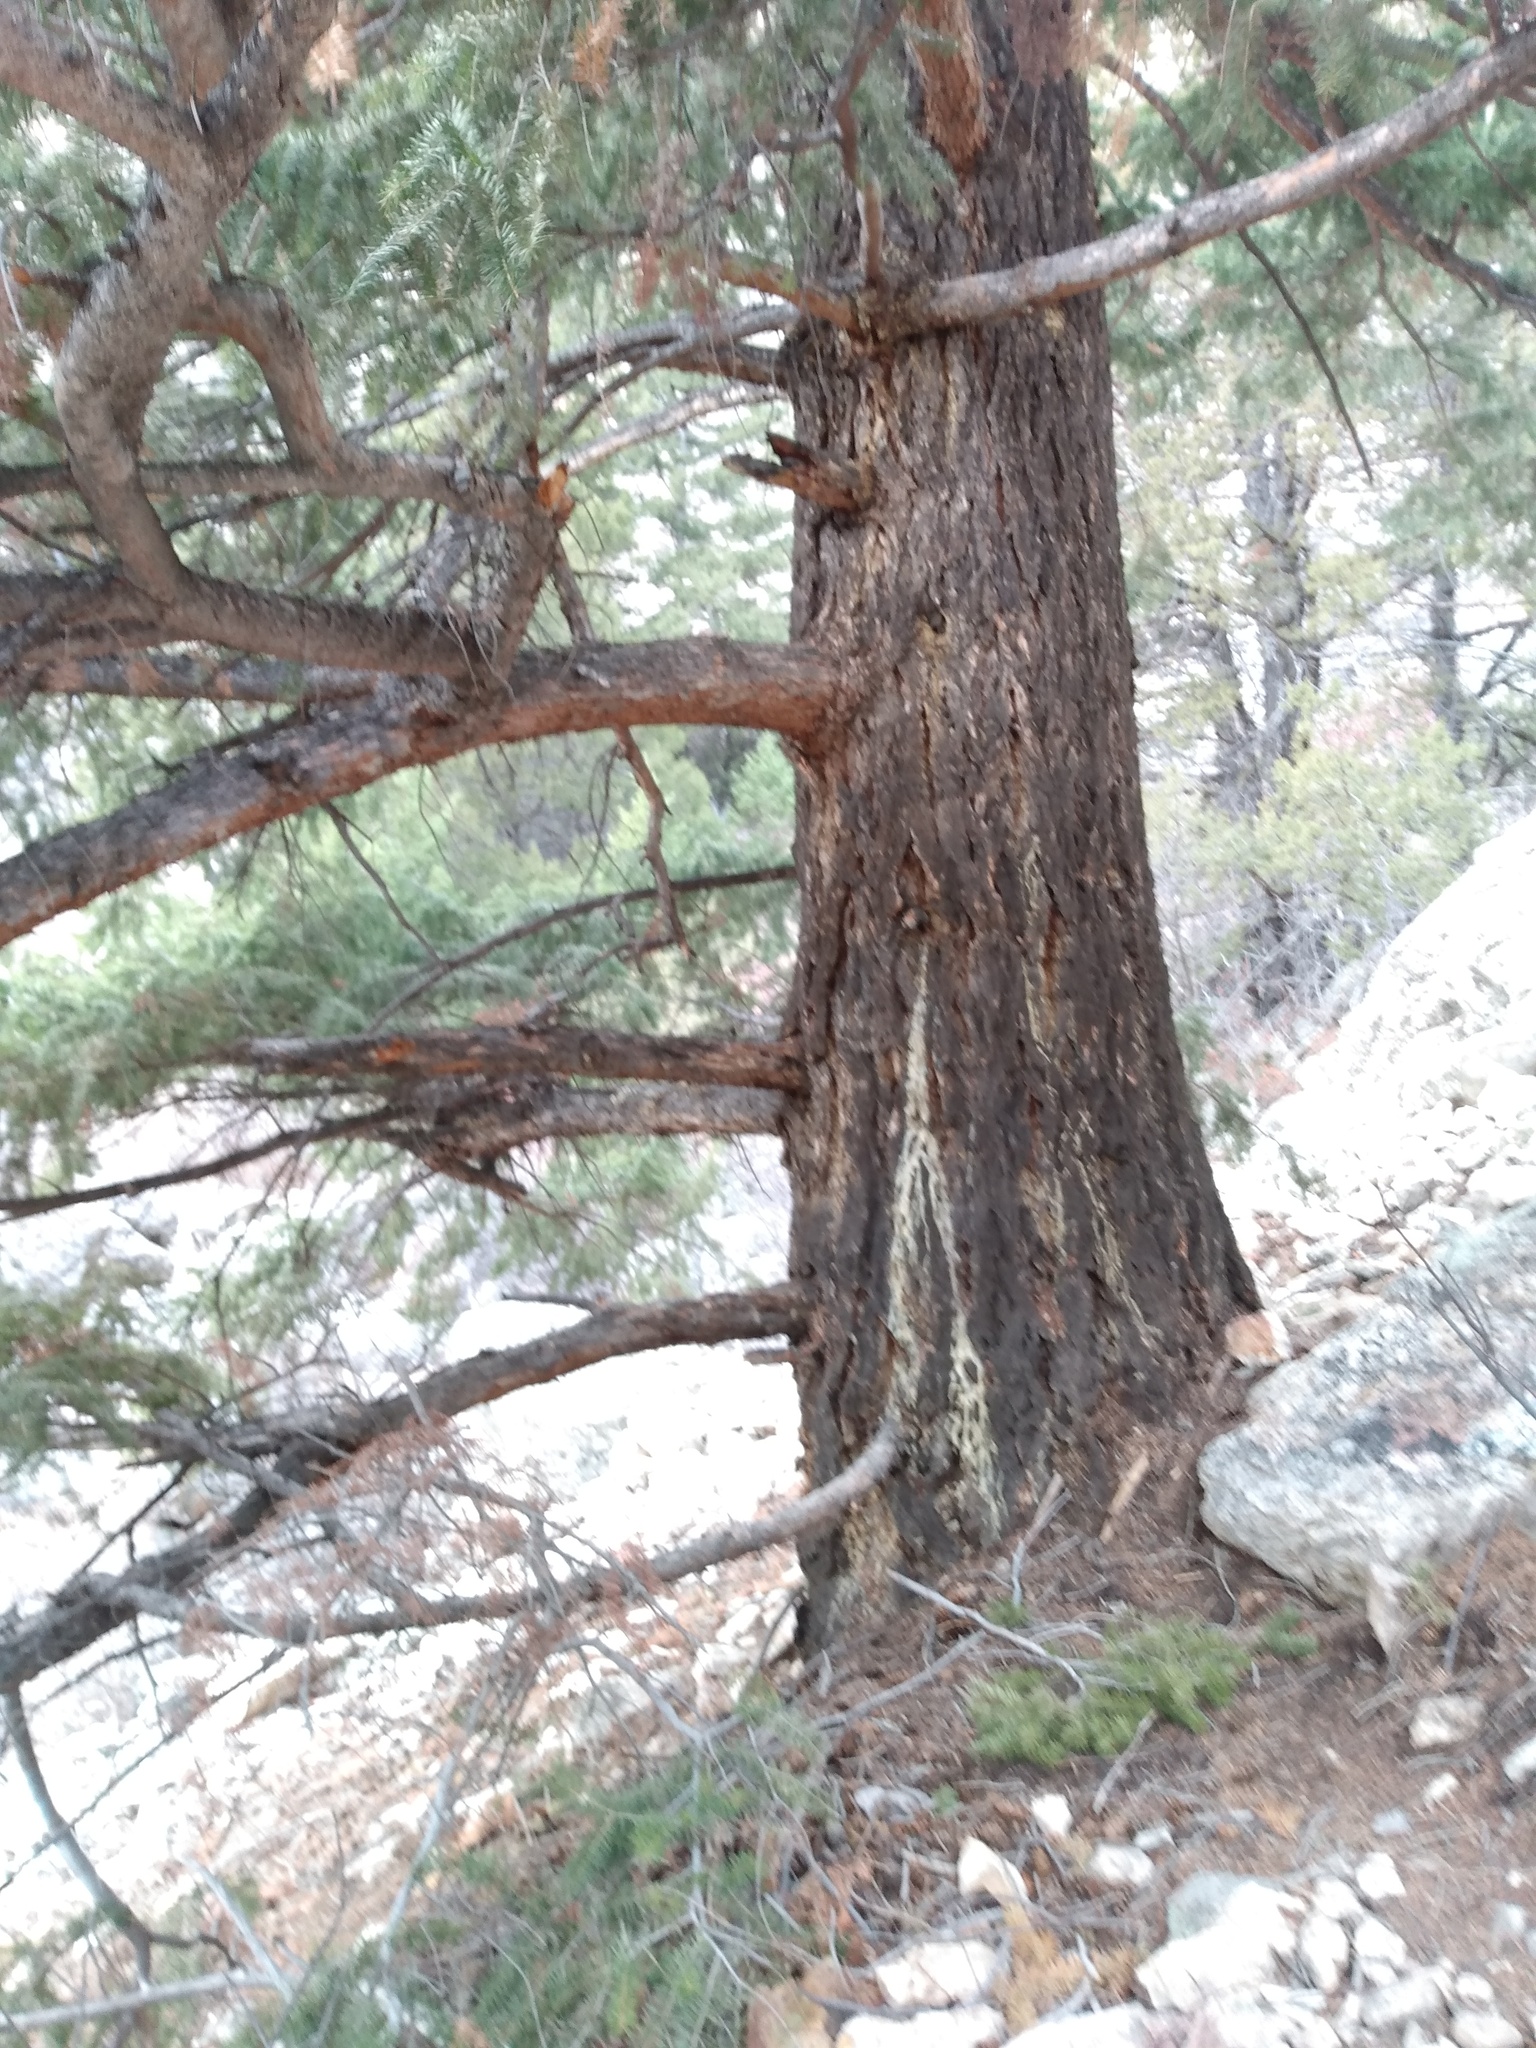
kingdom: Plantae
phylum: Tracheophyta
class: Pinopsida
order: Pinales
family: Pinaceae
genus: Pseudotsuga
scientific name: Pseudotsuga menziesii
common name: Douglas fir
